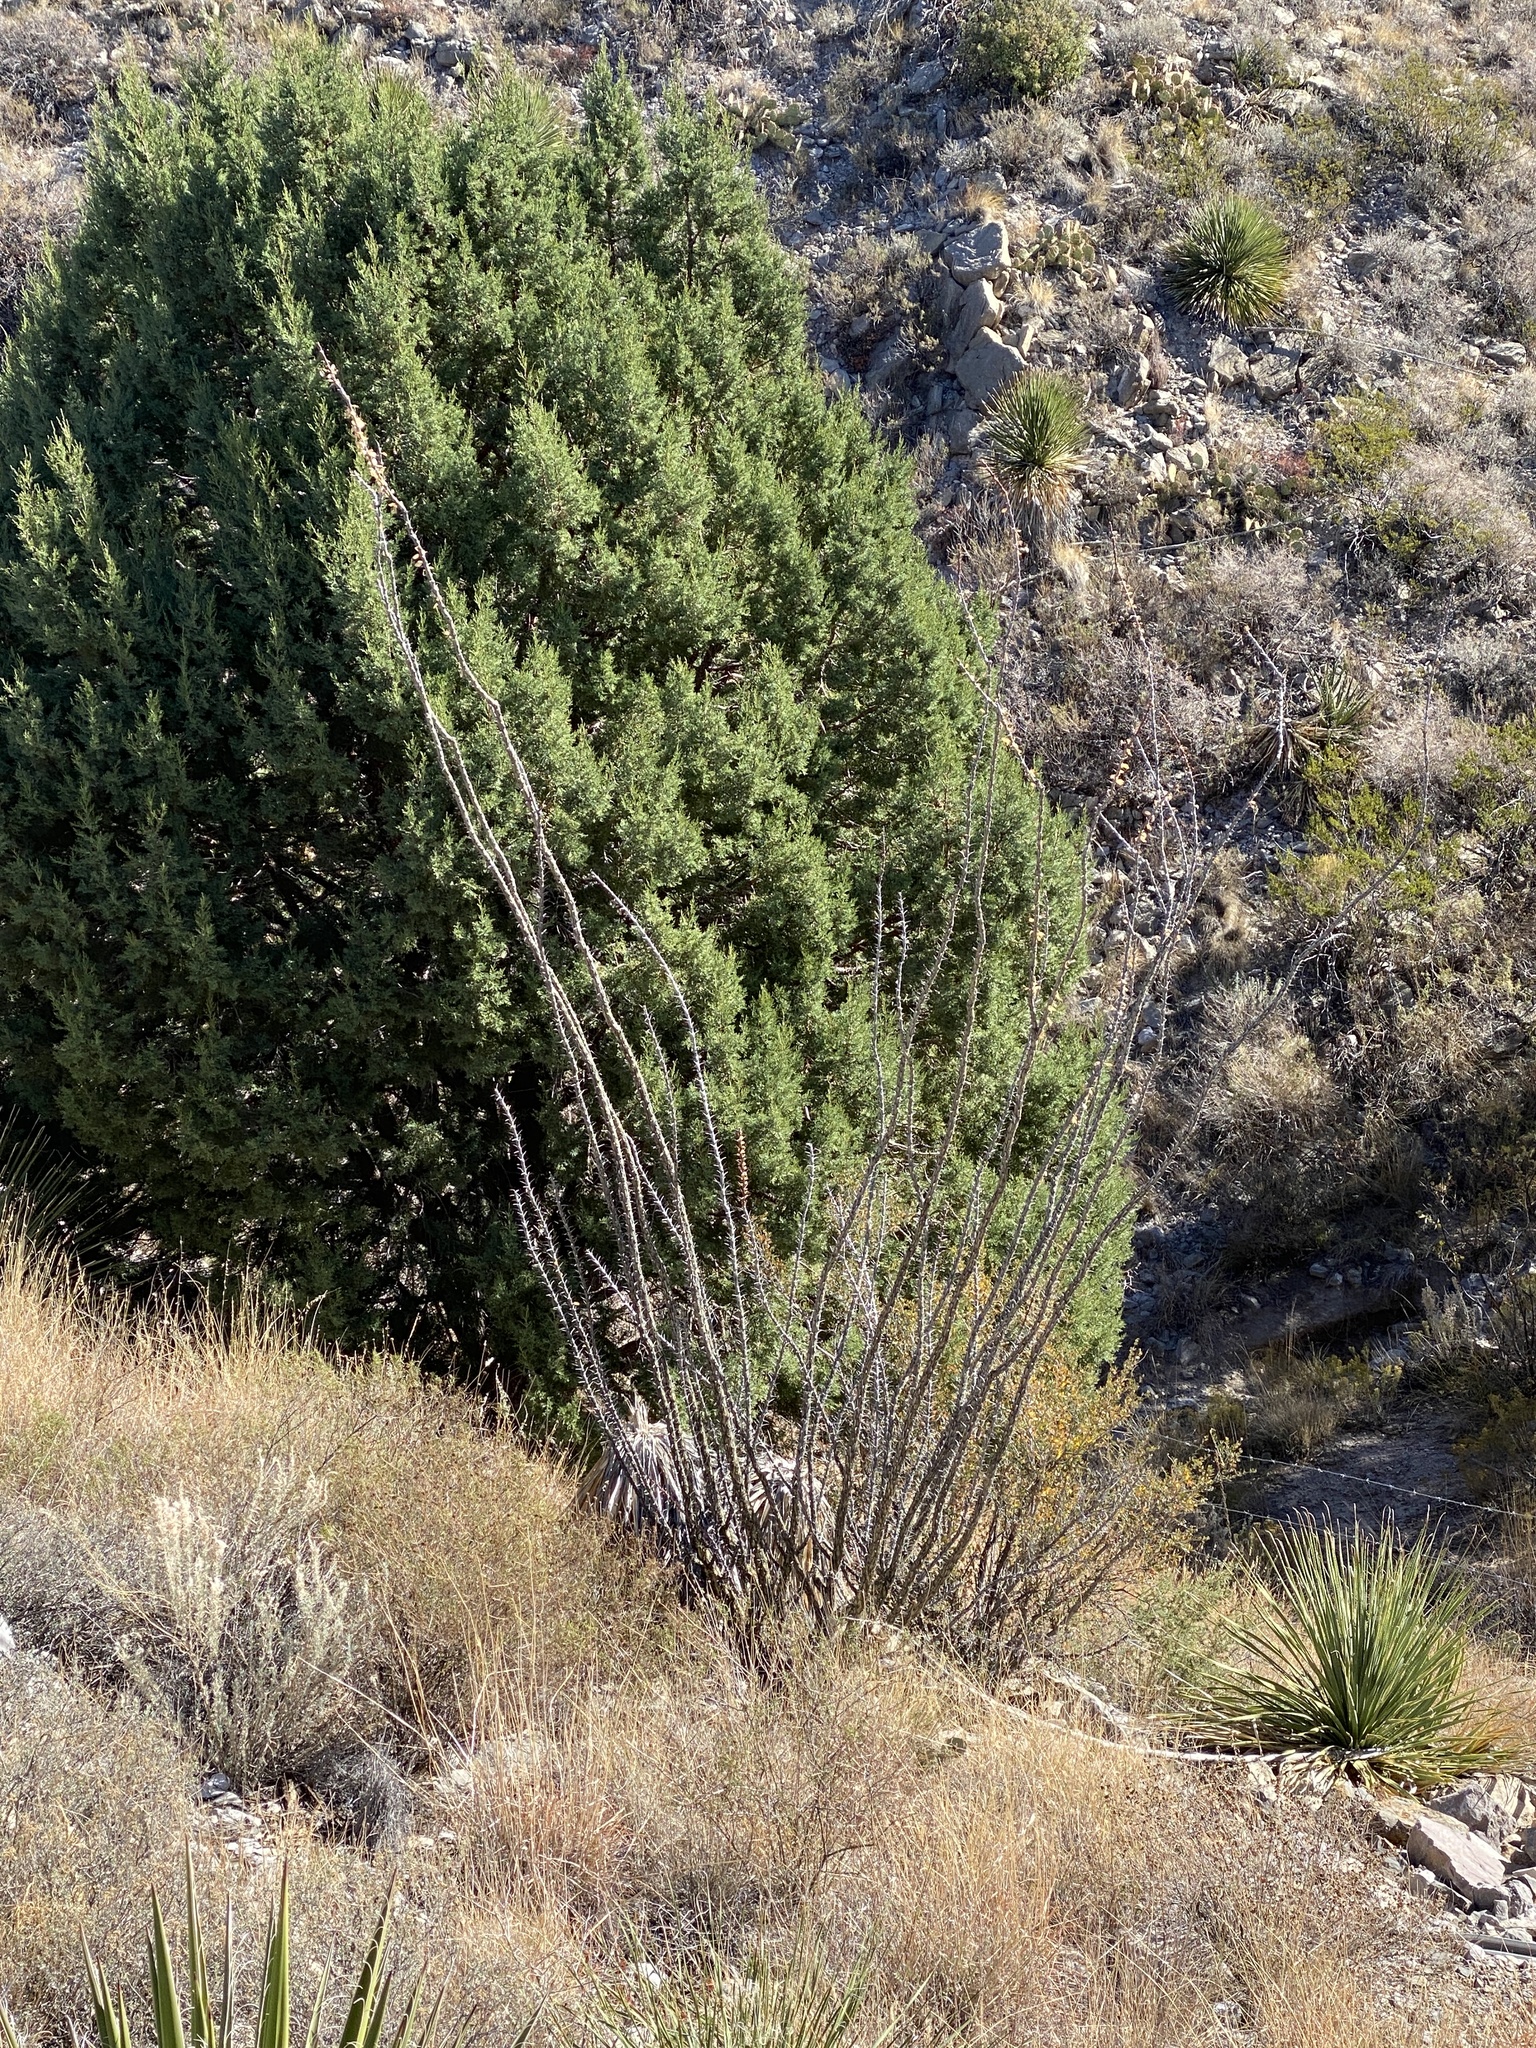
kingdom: Plantae
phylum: Tracheophyta
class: Magnoliopsida
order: Ericales
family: Fouquieriaceae
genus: Fouquieria
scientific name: Fouquieria splendens
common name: Vine-cactus
